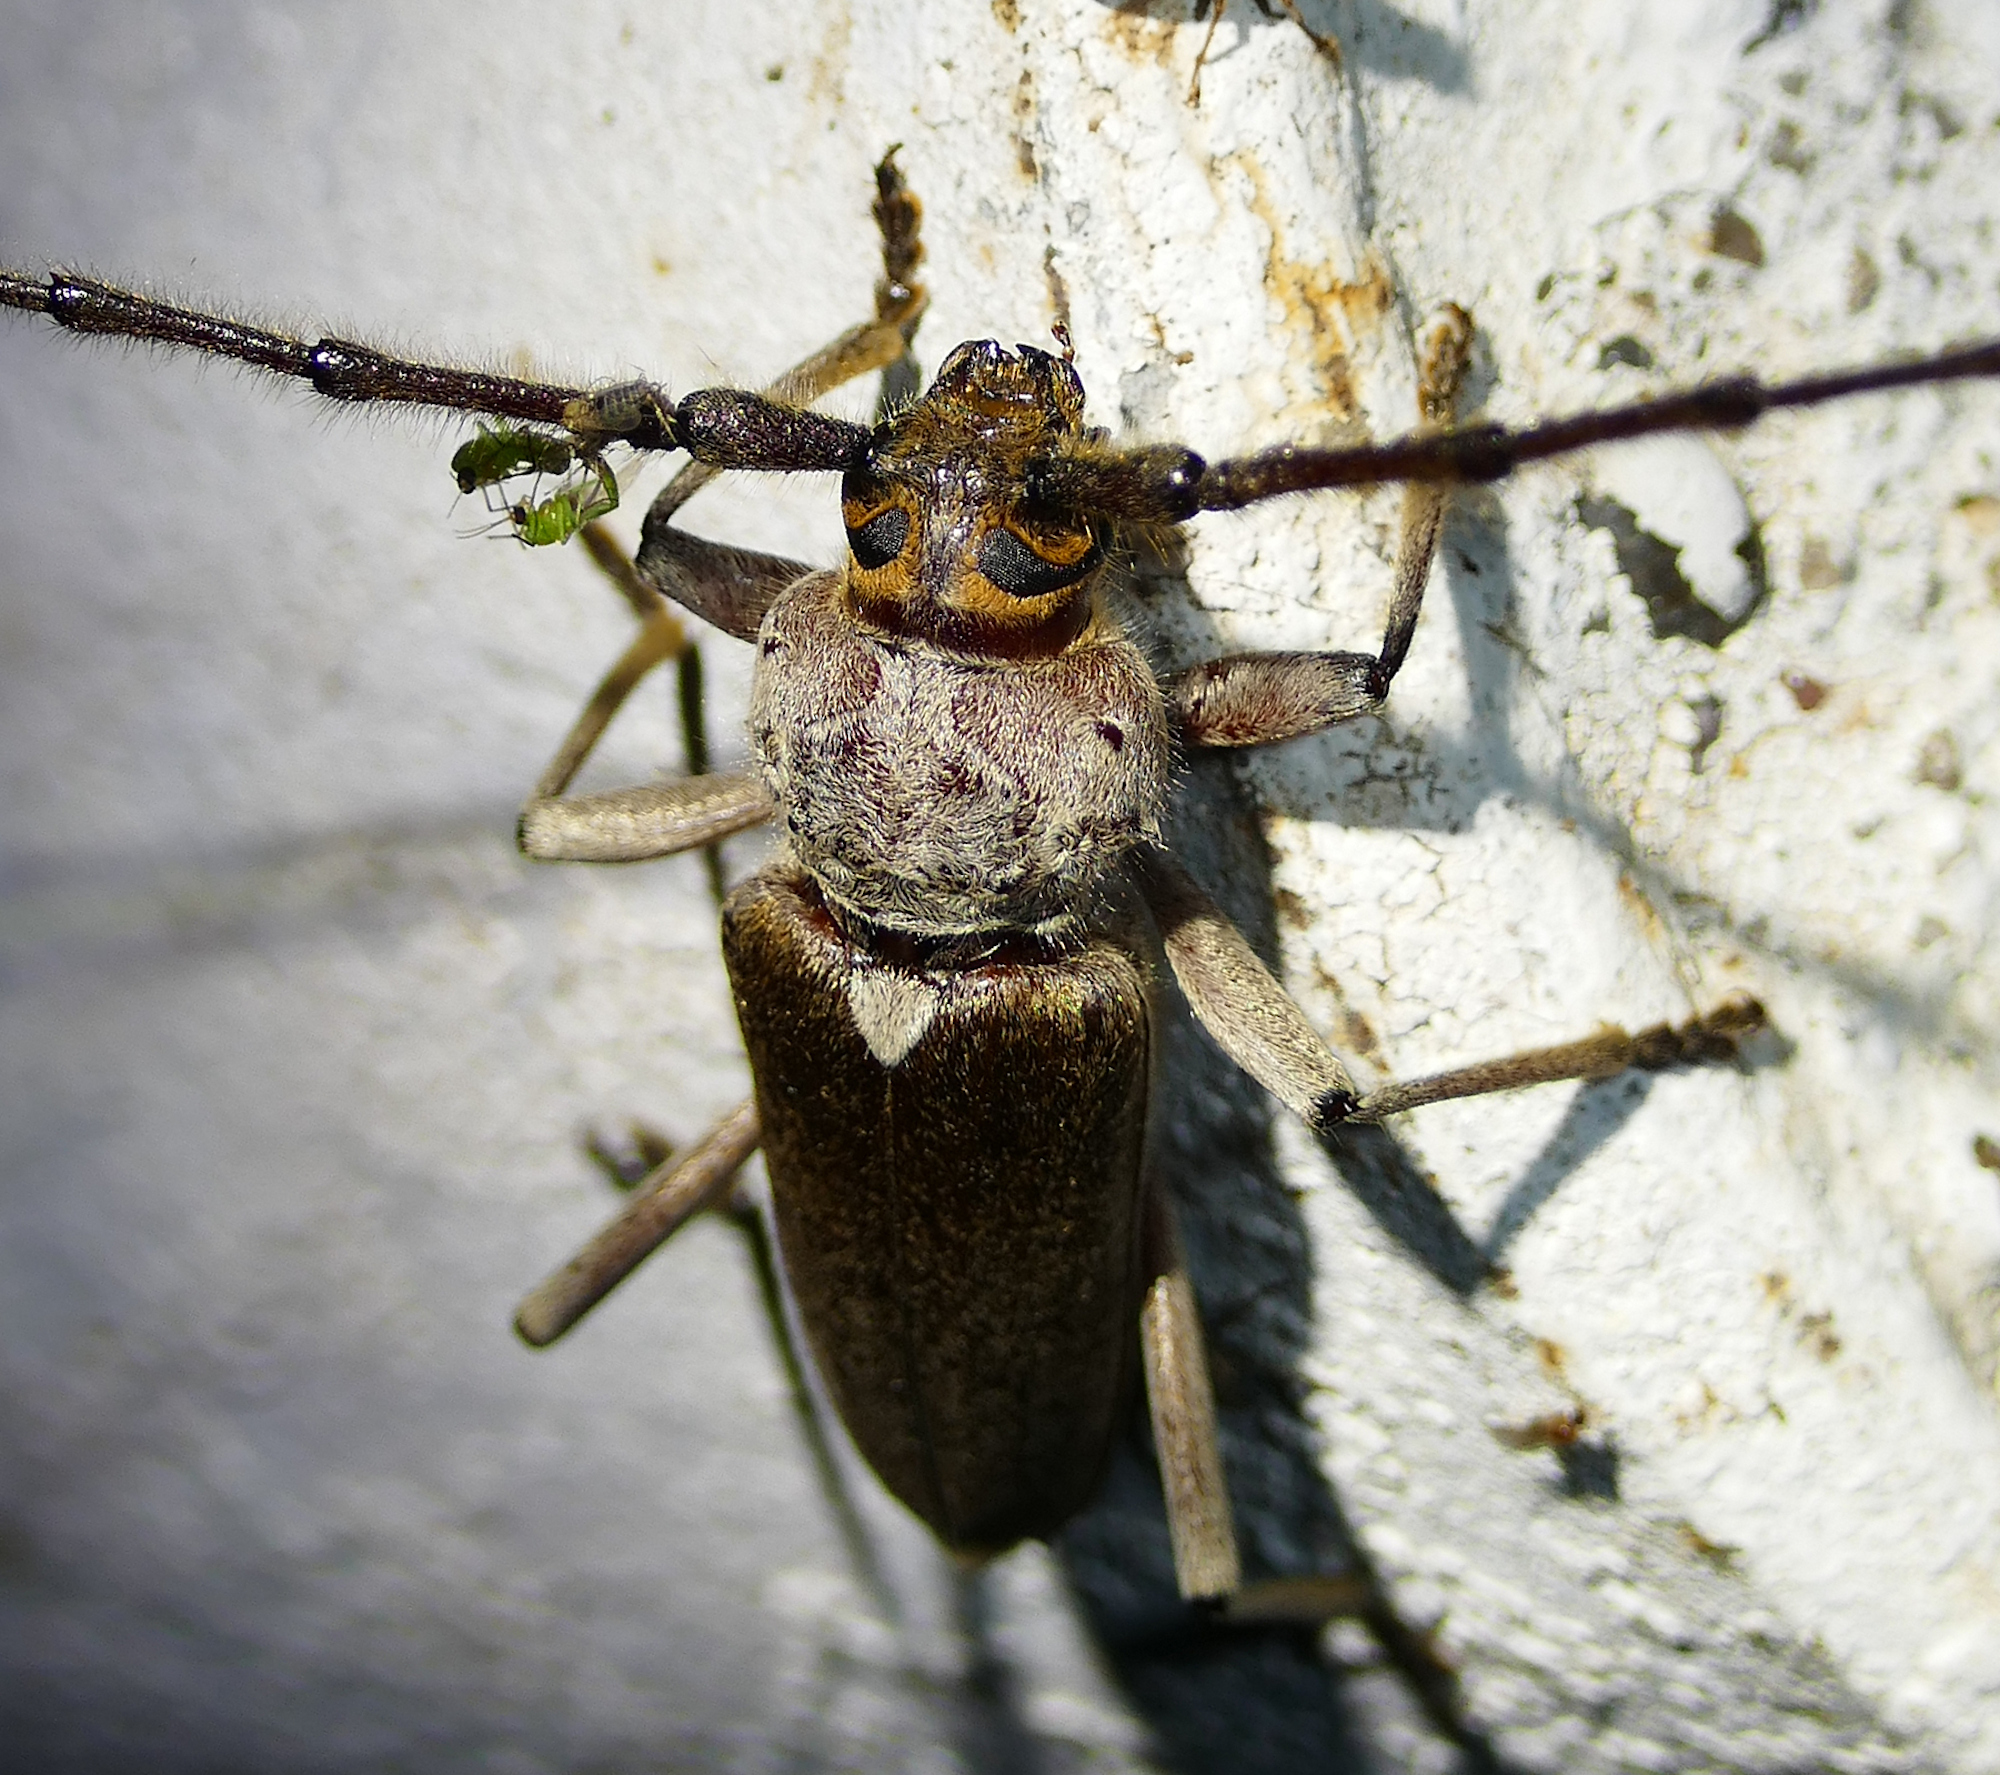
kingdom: Animalia
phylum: Arthropoda
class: Insecta
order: Coleoptera
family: Cerambycidae
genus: Gnaphalodes
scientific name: Gnaphalodes trachyderoides
